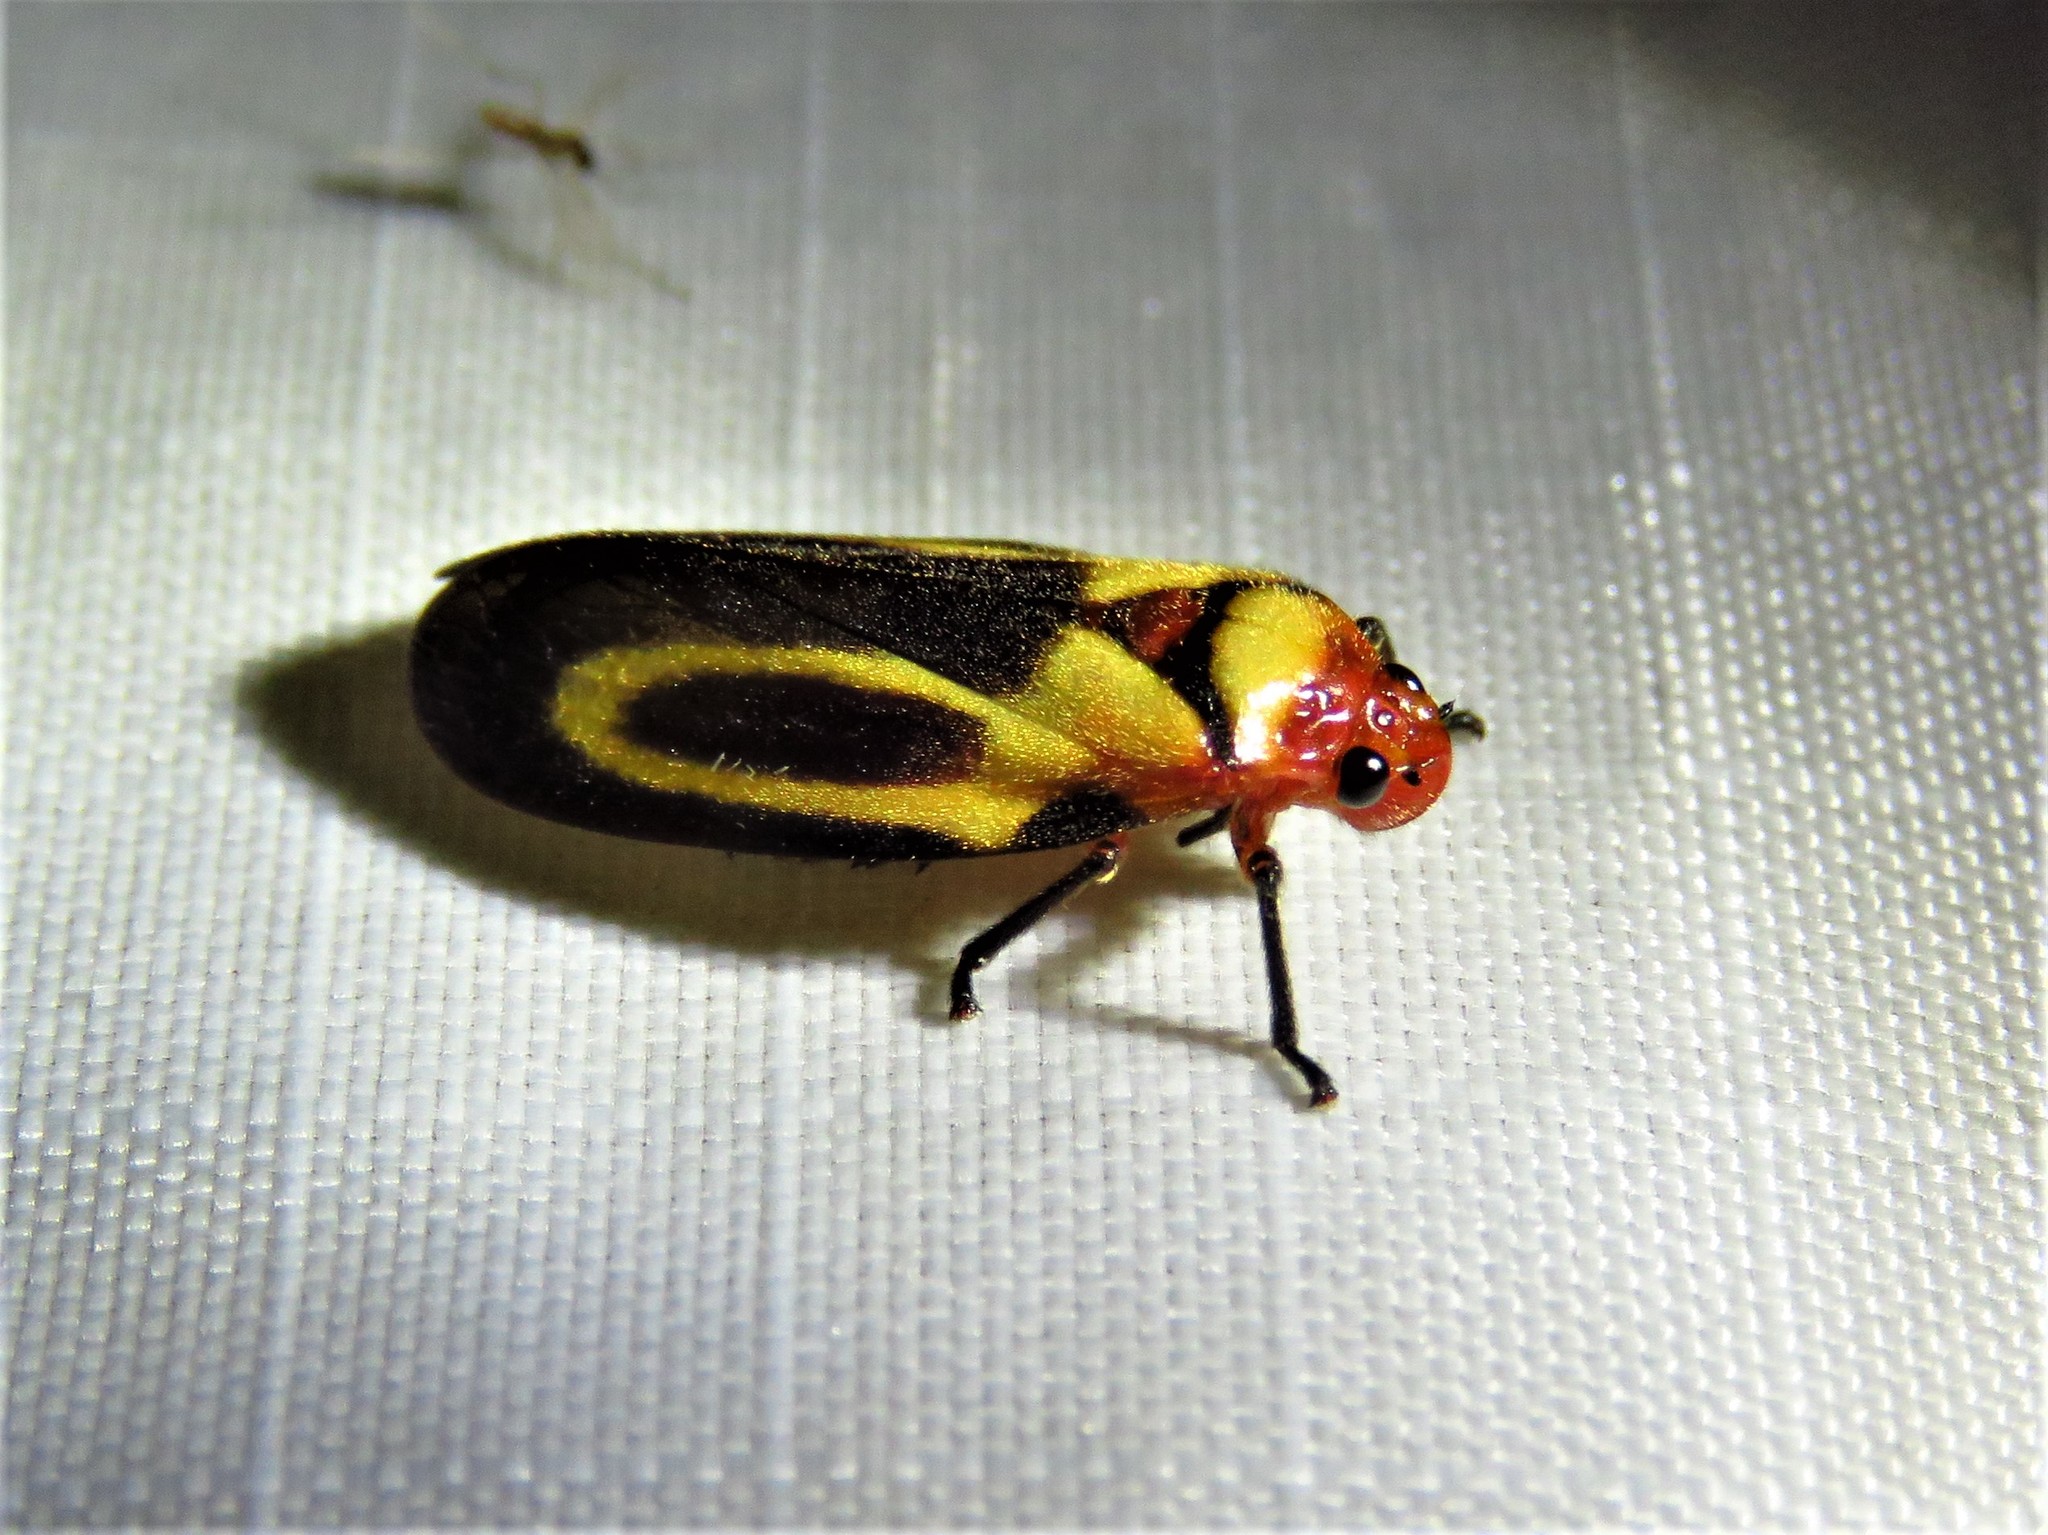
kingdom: Animalia
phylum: Arthropoda
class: Insecta
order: Hemiptera
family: Cercopidae
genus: Ocoaxo
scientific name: Ocoaxo
